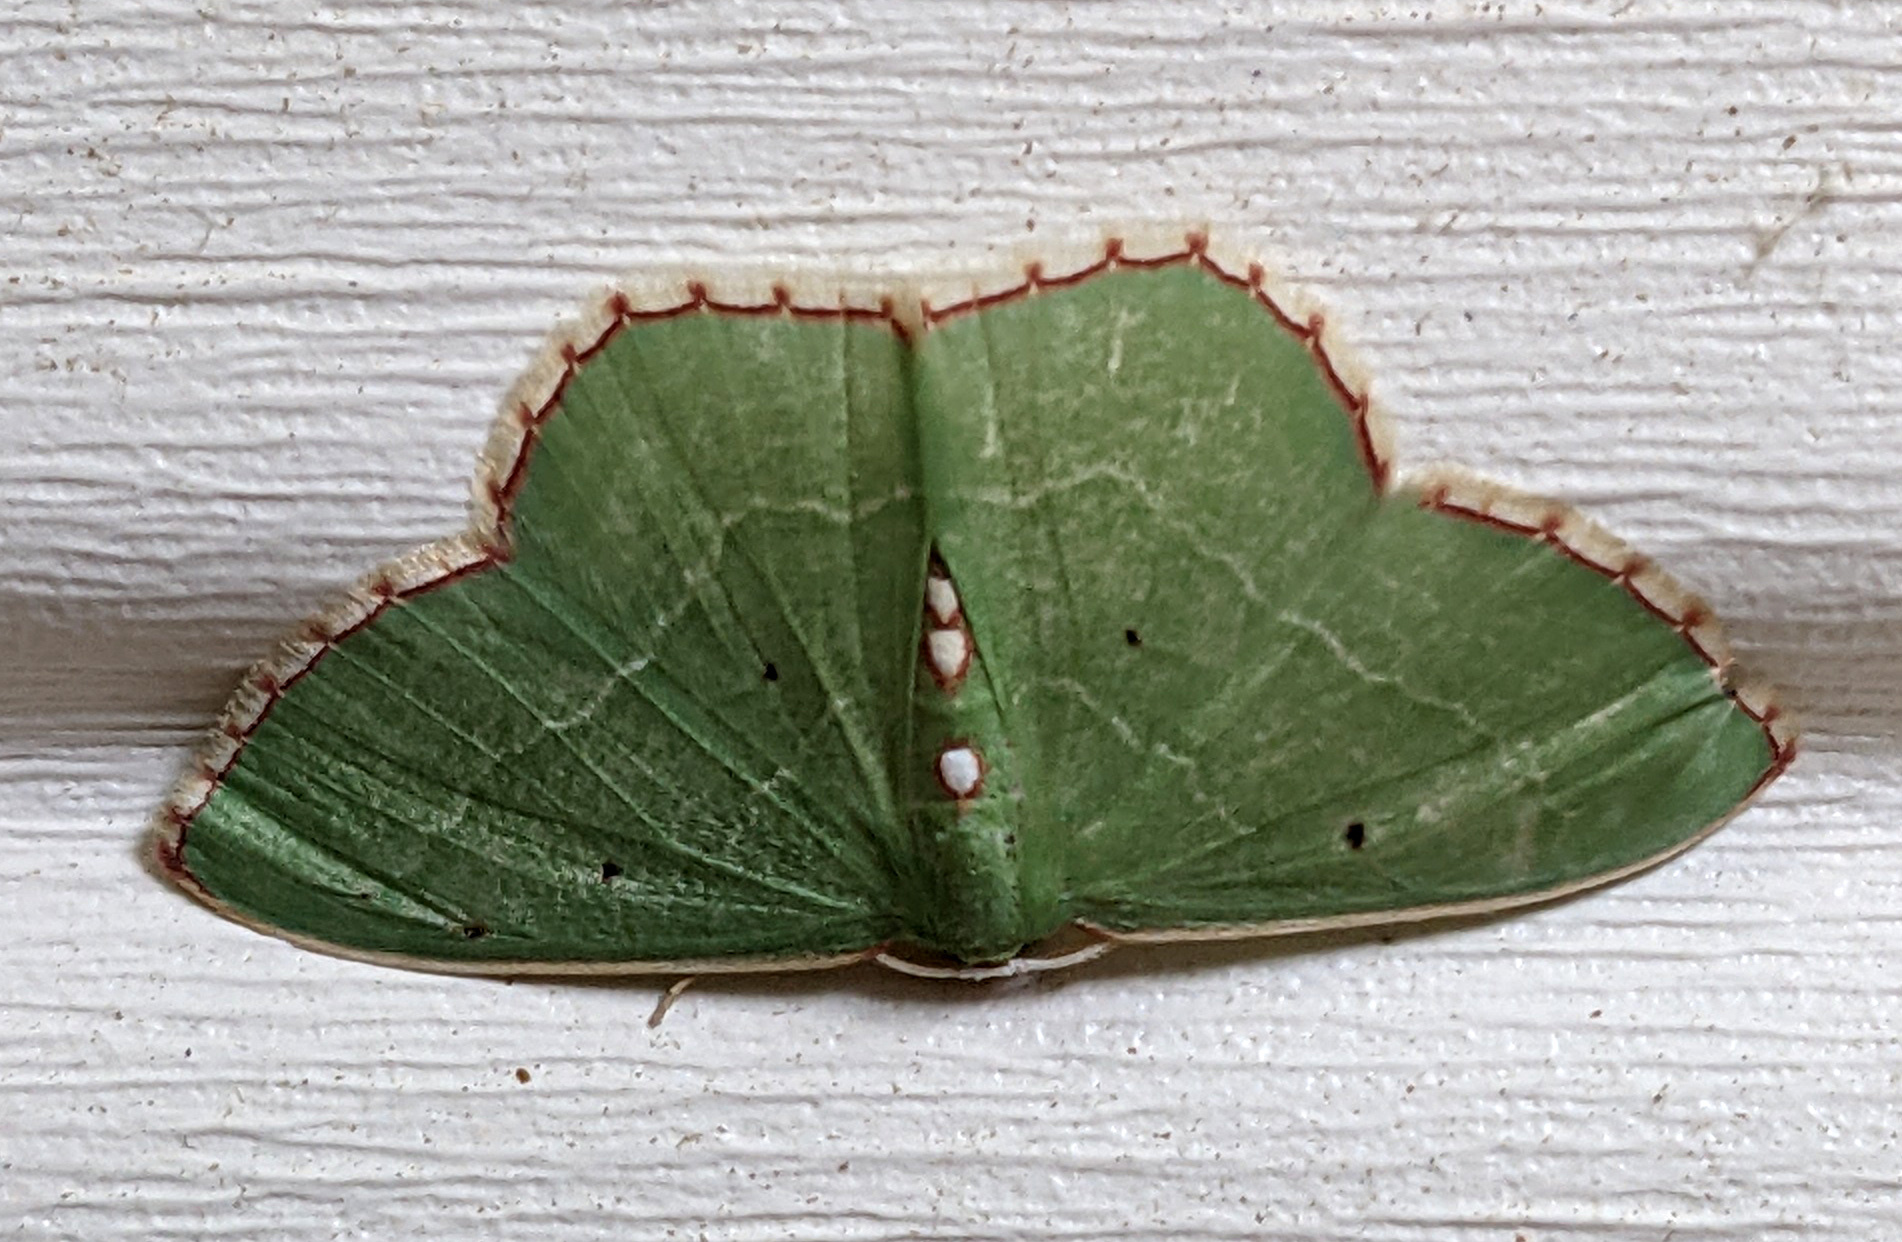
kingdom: Animalia
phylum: Arthropoda
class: Insecta
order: Lepidoptera
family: Geometridae
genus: Nemoria
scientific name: Nemoria lixaria
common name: Red-bordered emerald
